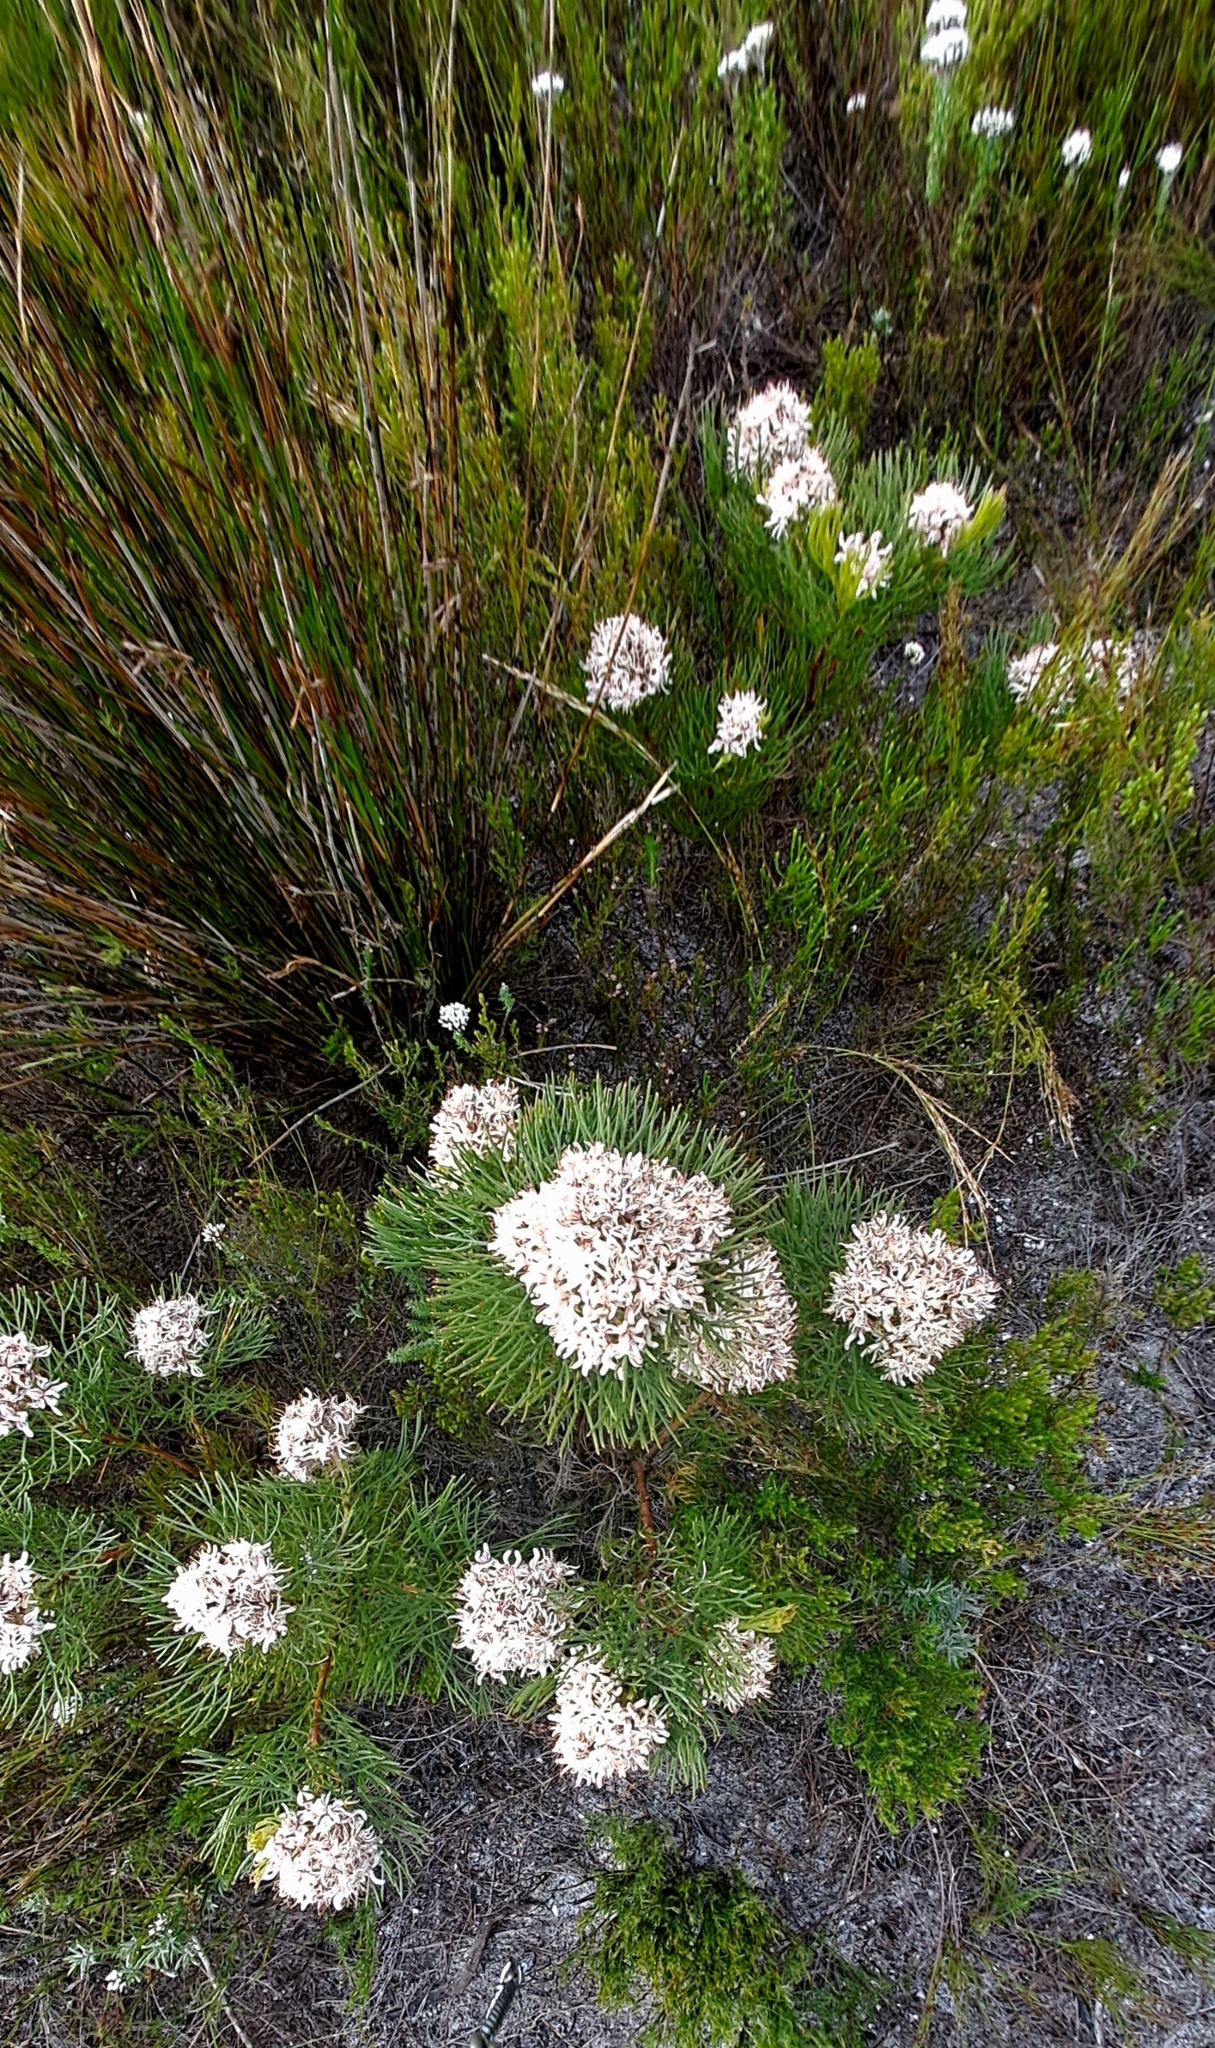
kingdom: Plantae
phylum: Tracheophyta
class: Magnoliopsida
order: Proteales
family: Proteaceae
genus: Serruria
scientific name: Serruria ascendens
